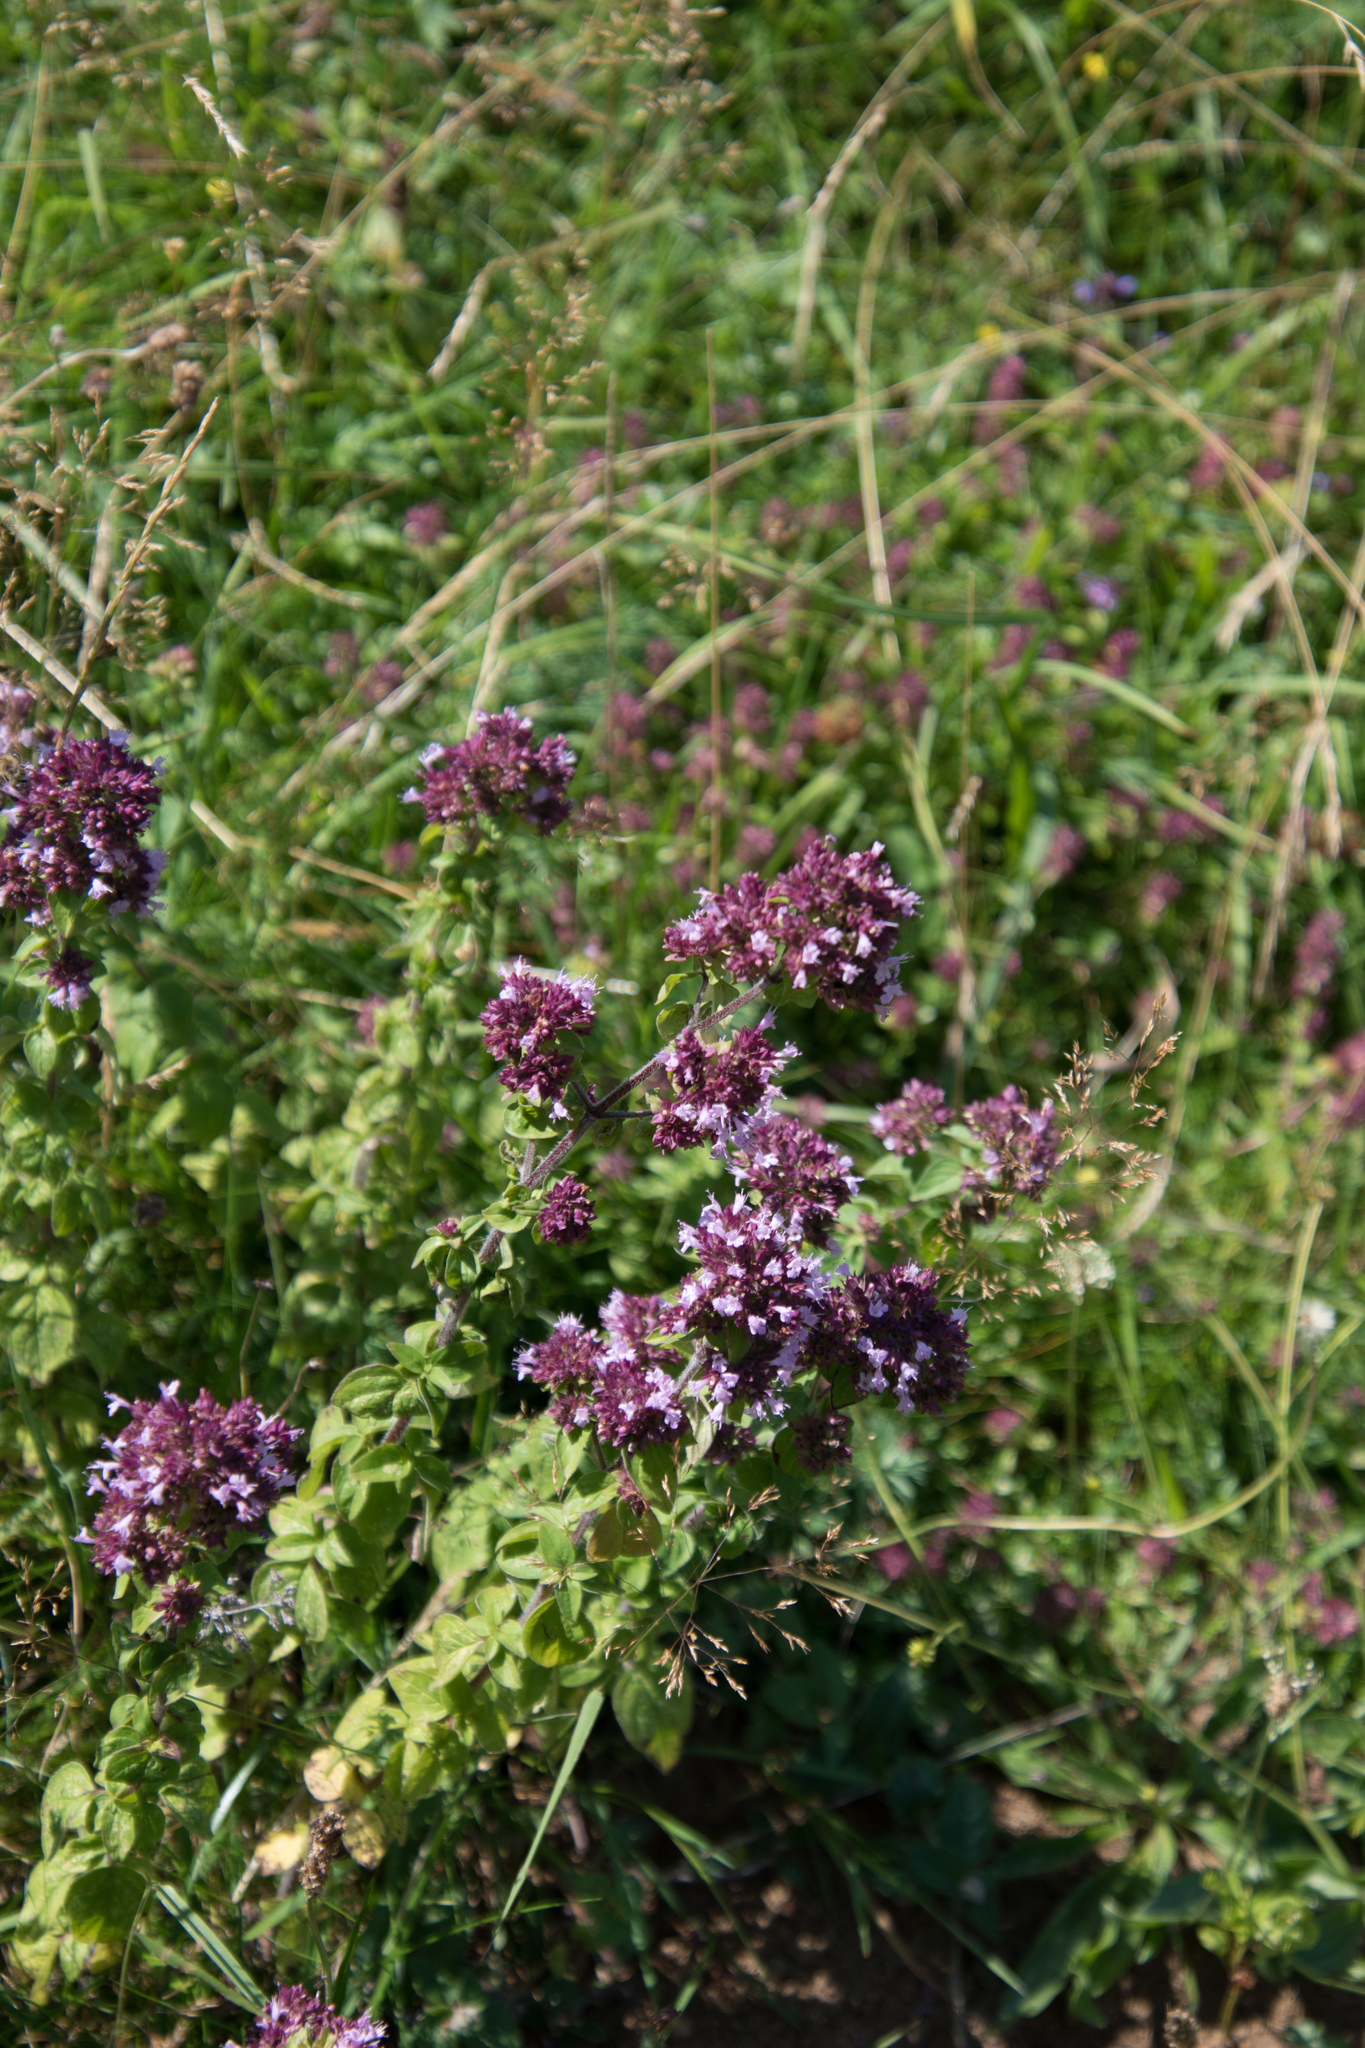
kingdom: Plantae
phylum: Tracheophyta
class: Magnoliopsida
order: Lamiales
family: Lamiaceae
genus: Origanum
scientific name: Origanum vulgare
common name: Wild marjoram
